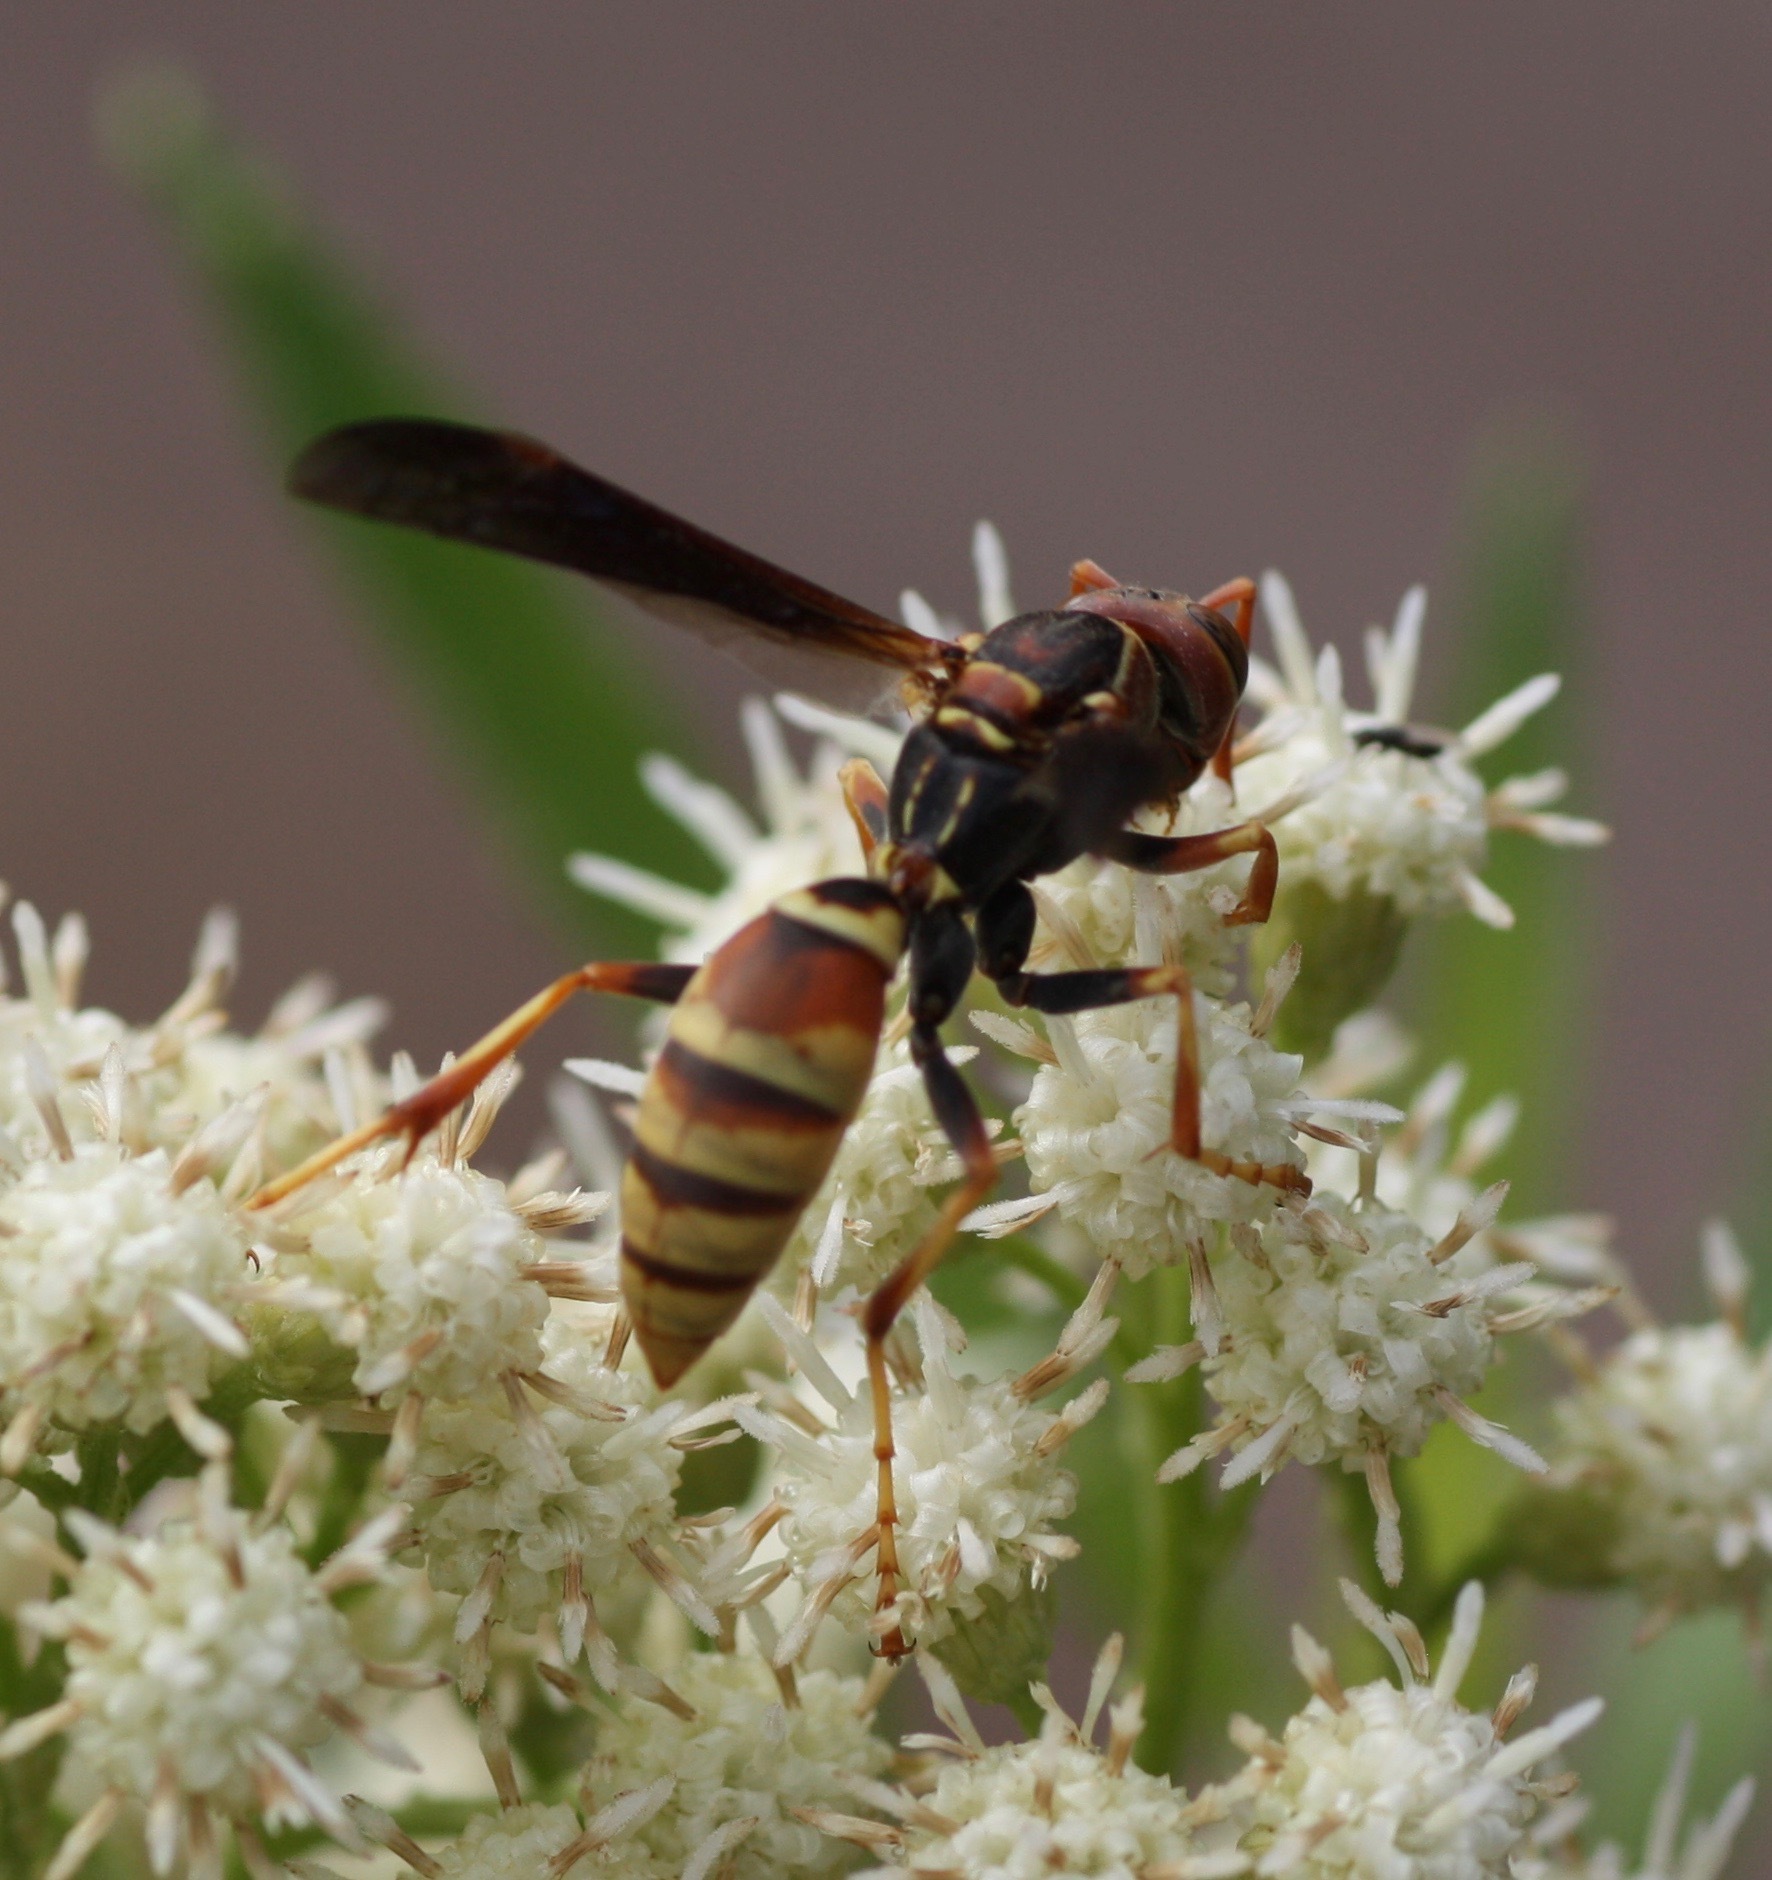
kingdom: Animalia
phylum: Arthropoda
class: Insecta
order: Hymenoptera
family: Eumenidae
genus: Polistes
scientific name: Polistes dorsalis
